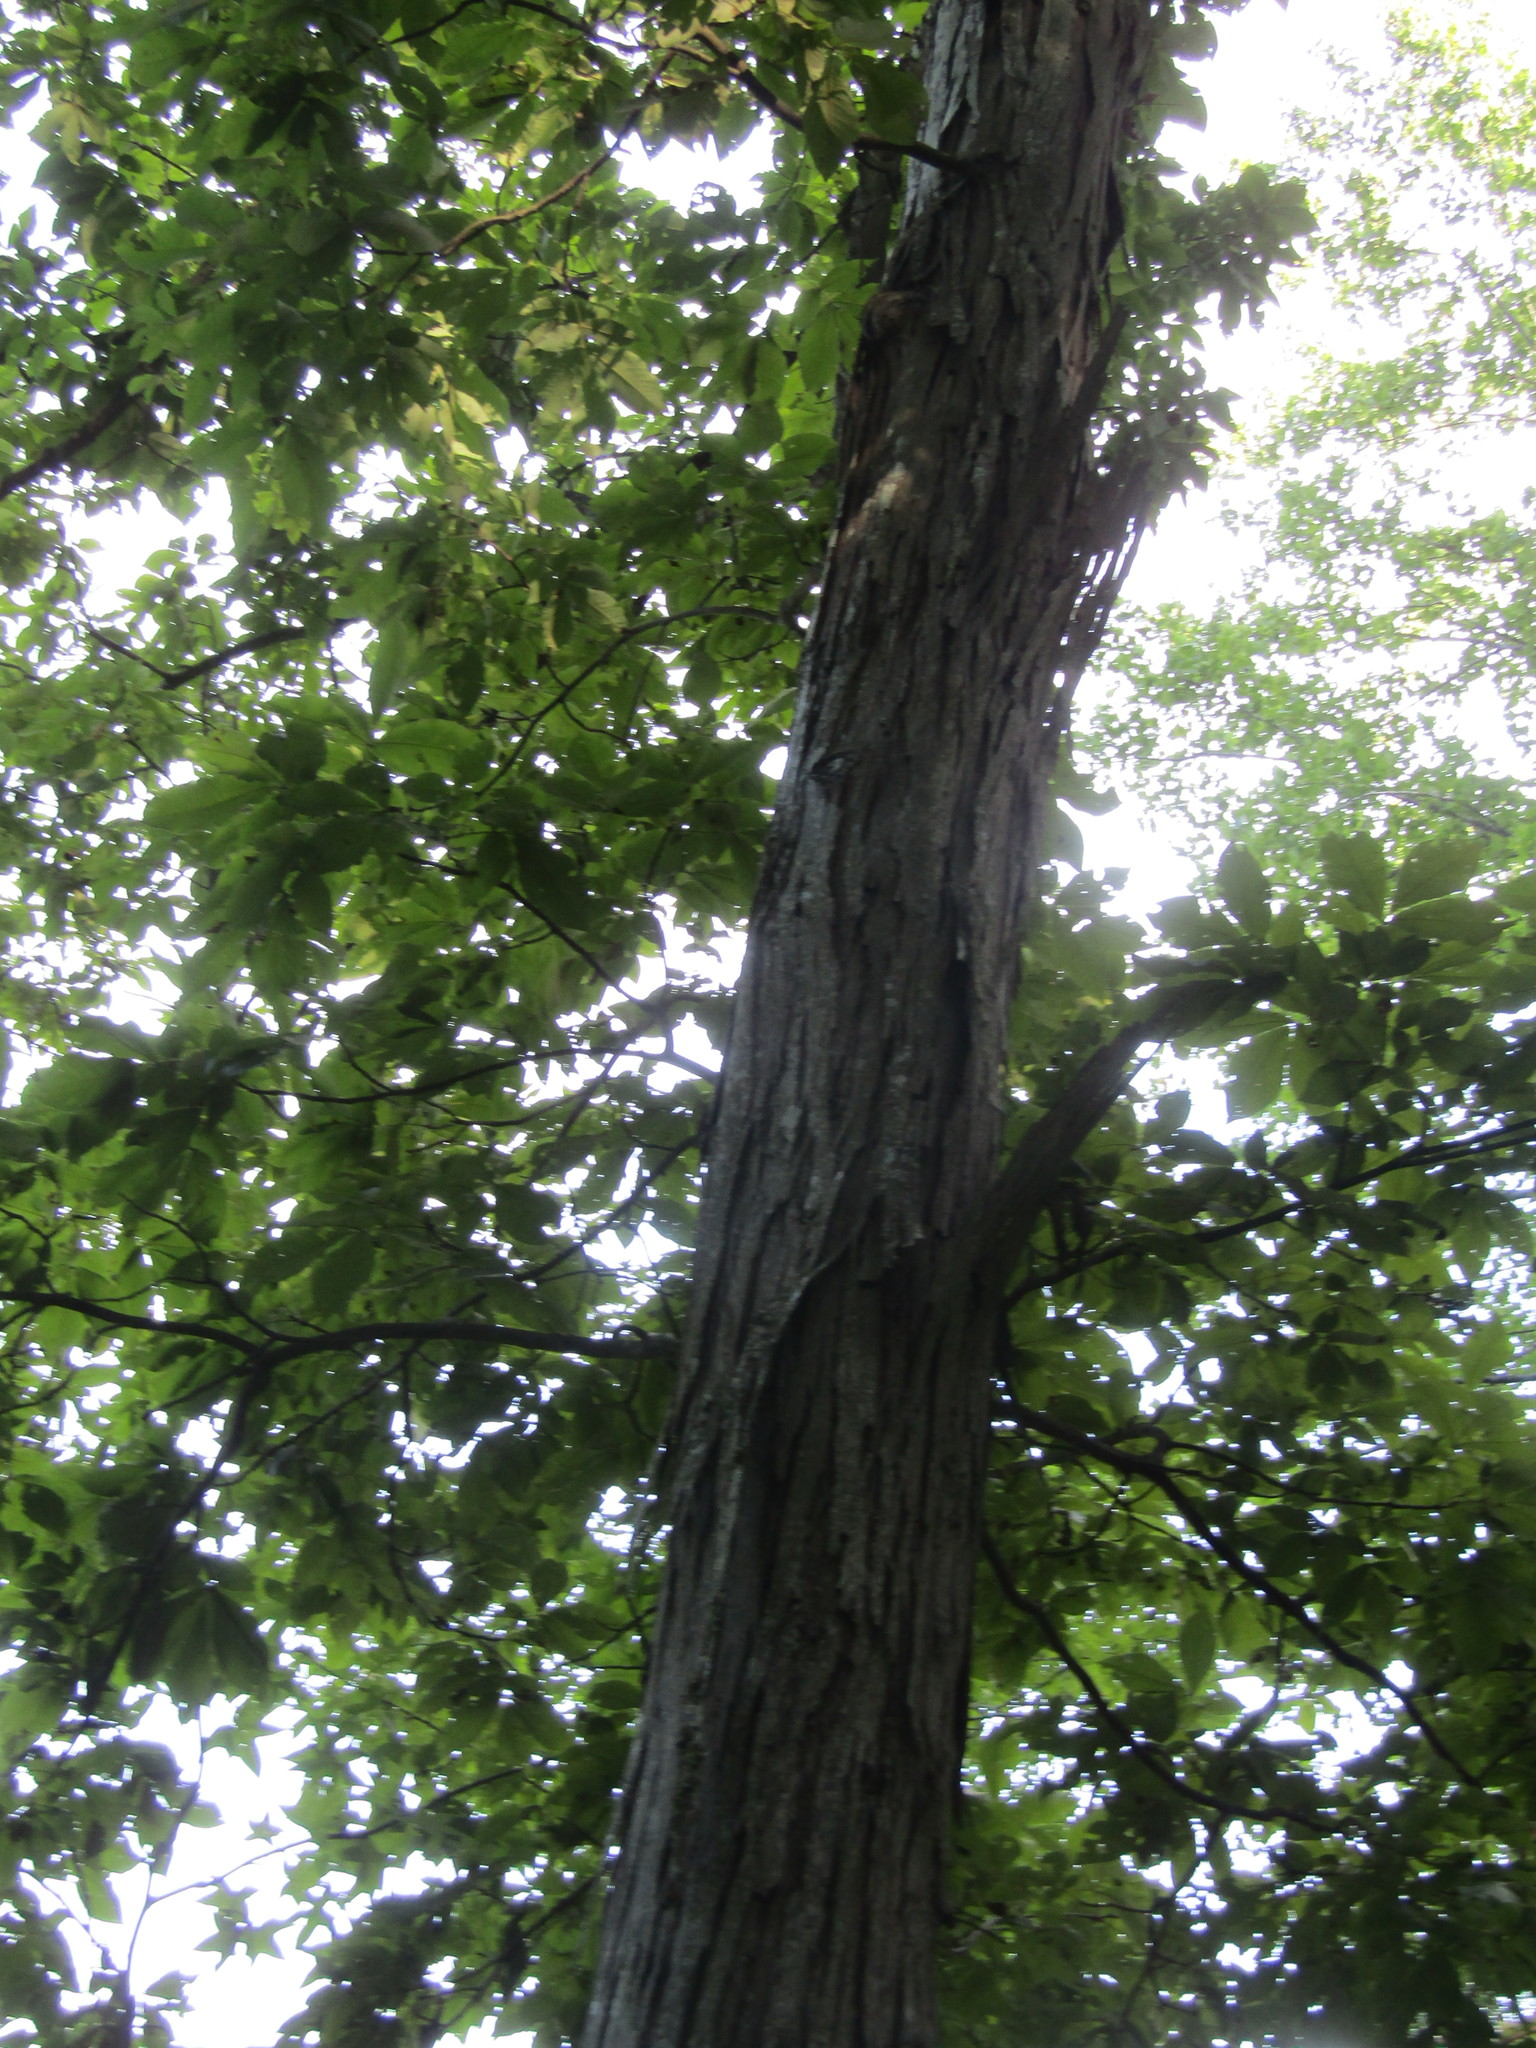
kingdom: Plantae
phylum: Tracheophyta
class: Magnoliopsida
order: Fagales
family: Juglandaceae
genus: Carya
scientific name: Carya ovata
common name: Shagbark hickory
